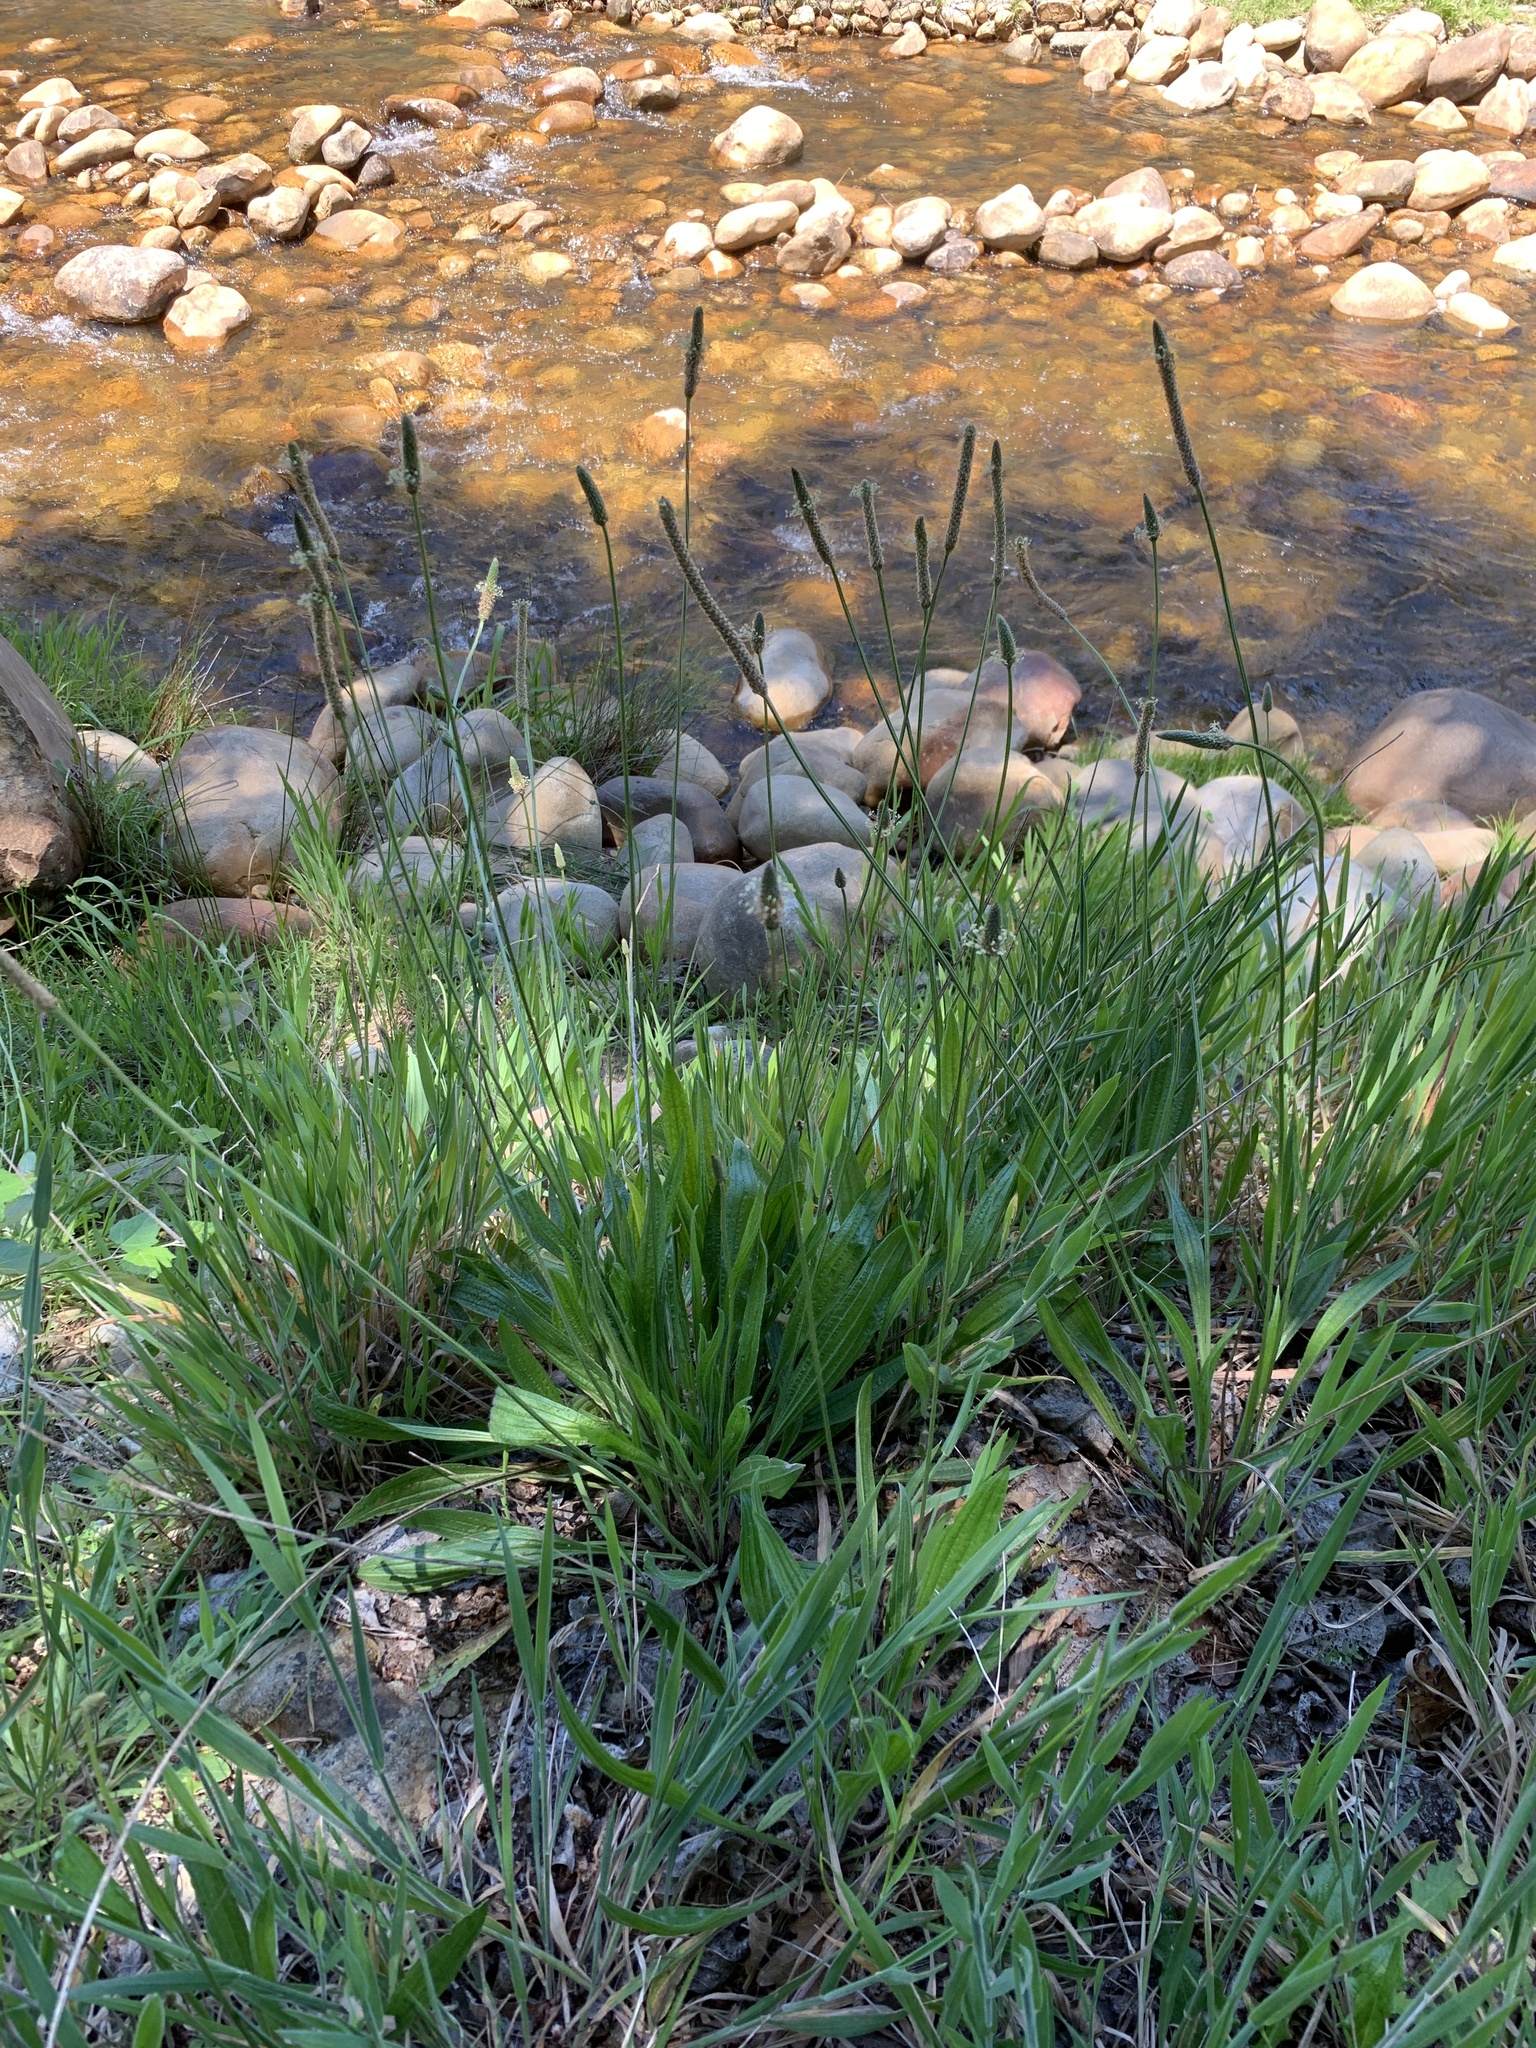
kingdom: Plantae
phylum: Tracheophyta
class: Magnoliopsida
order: Lamiales
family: Plantaginaceae
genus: Plantago
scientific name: Plantago lanceolata
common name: Ribwort plantain
